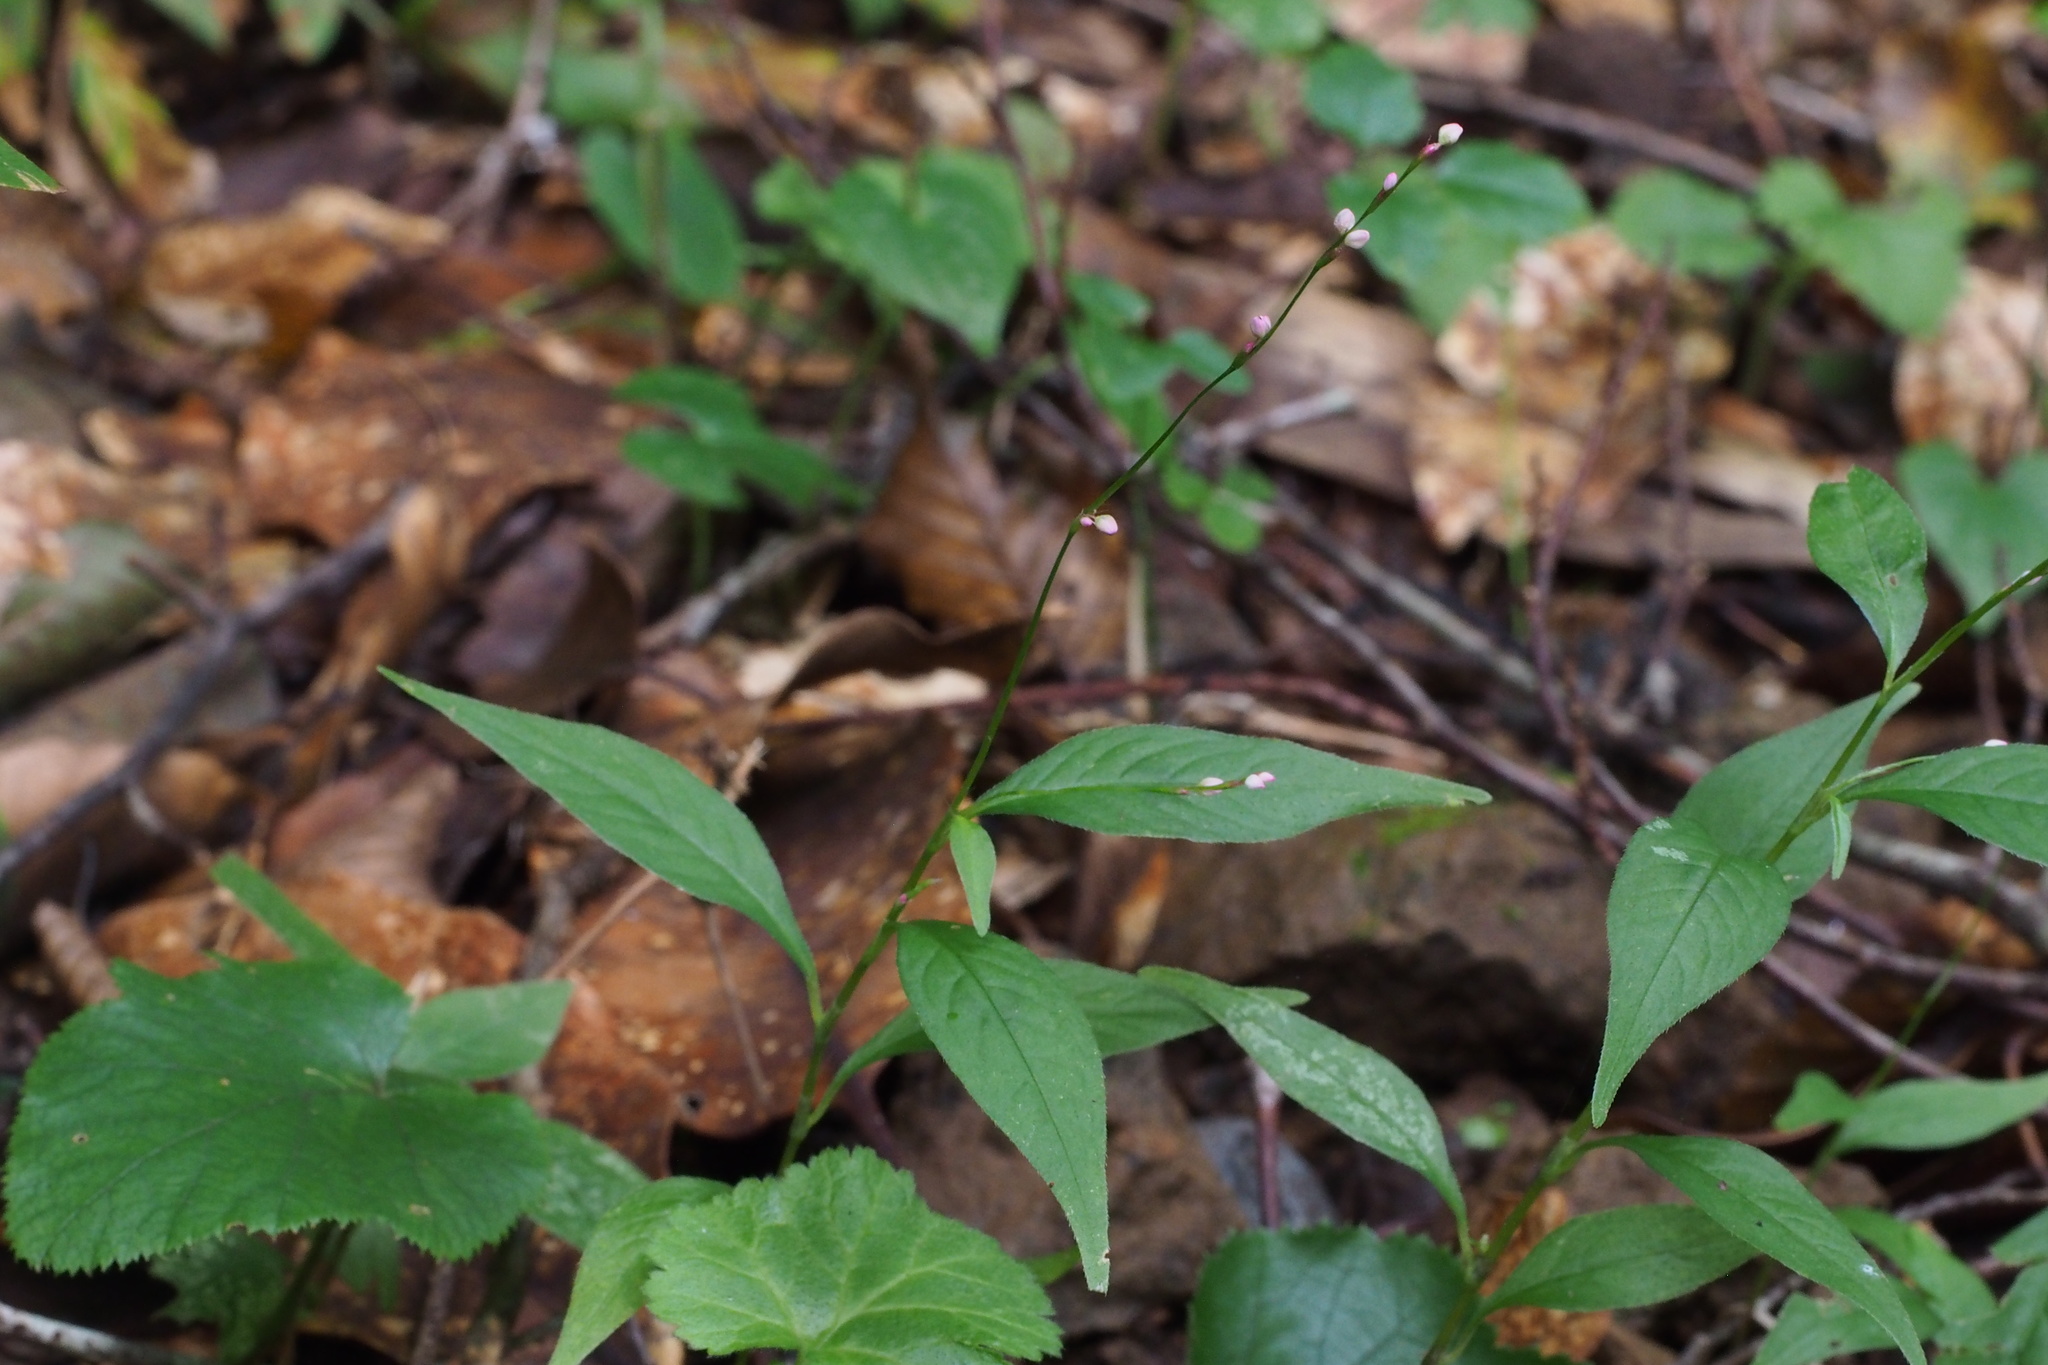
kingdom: Plantae
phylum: Tracheophyta
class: Magnoliopsida
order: Caryophyllales
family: Polygonaceae
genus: Persicaria
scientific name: Persicaria posumbu
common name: Oriental lady's thumb
